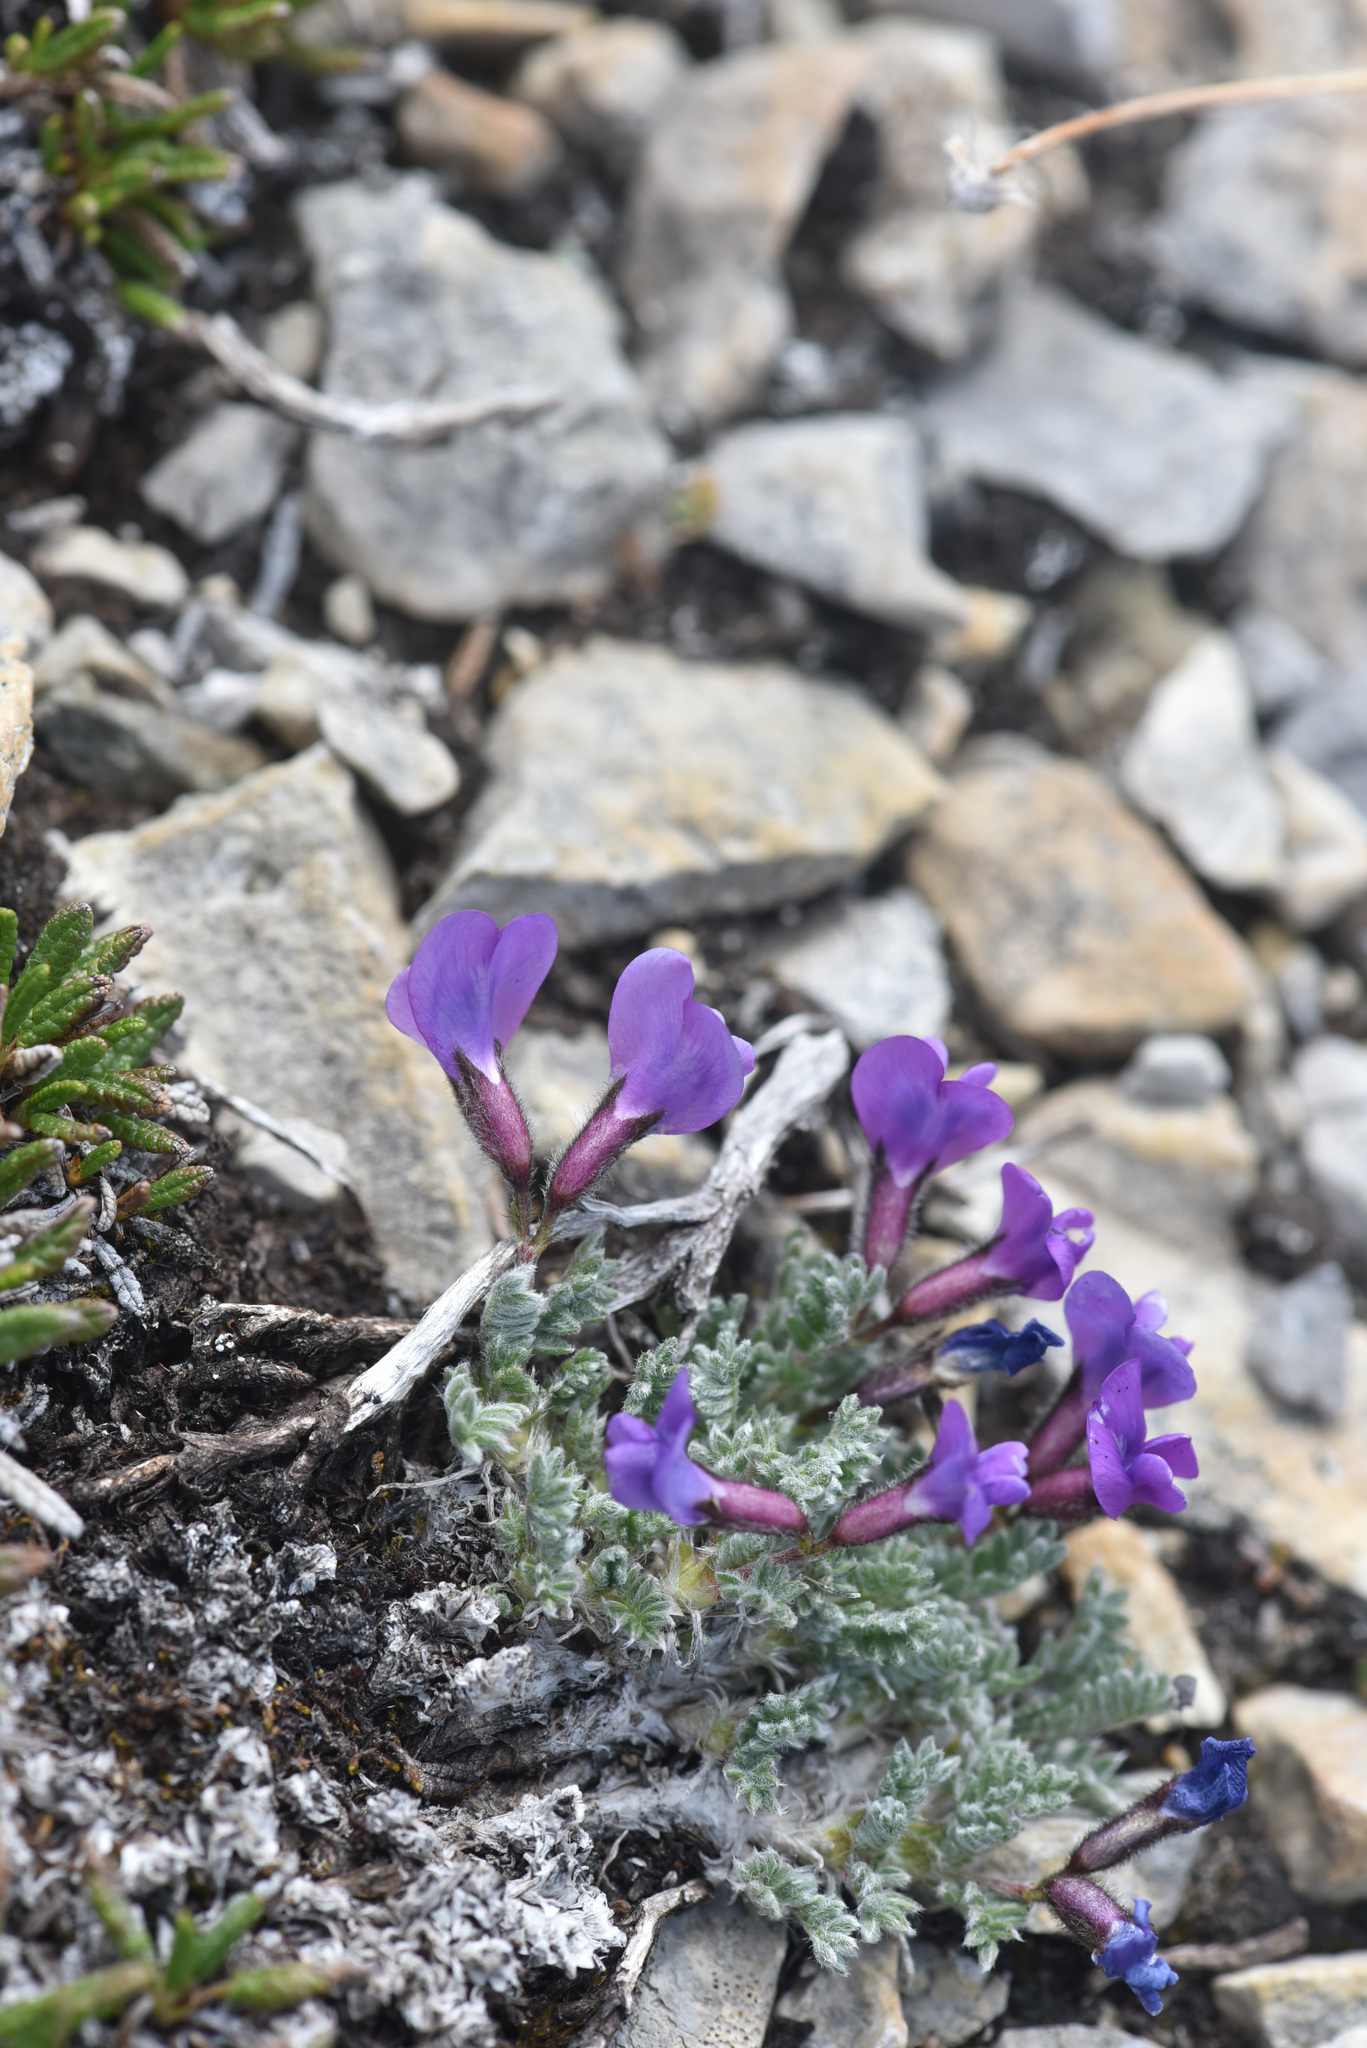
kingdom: Plantae
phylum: Tracheophyta
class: Magnoliopsida
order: Fabales
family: Fabaceae
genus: Oxytropis
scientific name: Oxytropis podocarpa
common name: Gray's oxytrope
